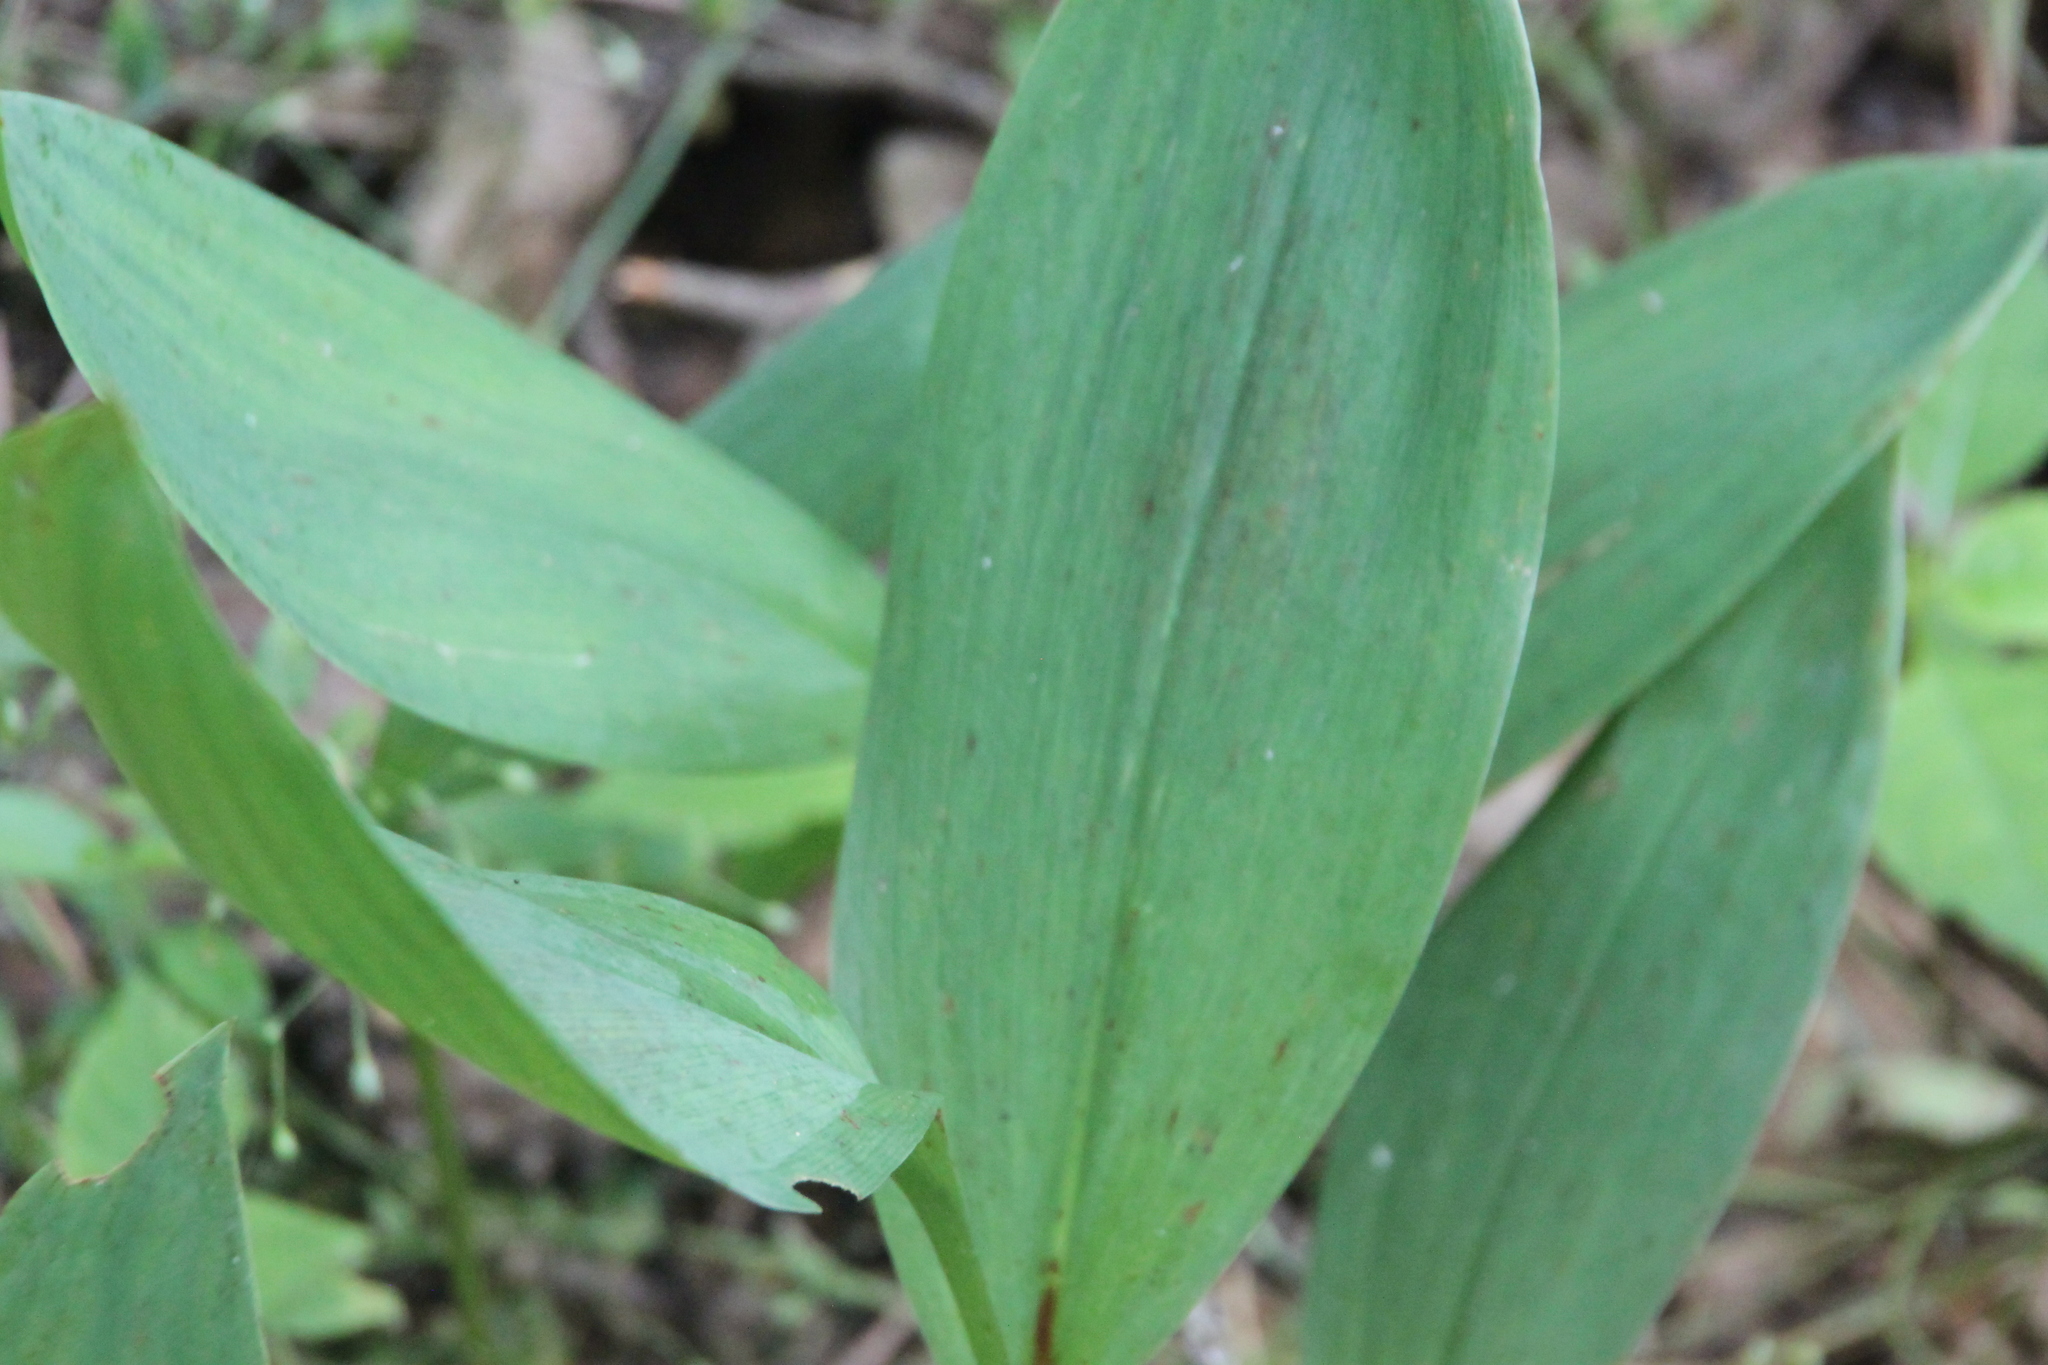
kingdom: Plantae
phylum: Tracheophyta
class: Liliopsida
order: Asparagales
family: Asparagaceae
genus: Convallaria
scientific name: Convallaria majalis
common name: Lily-of-the-valley
